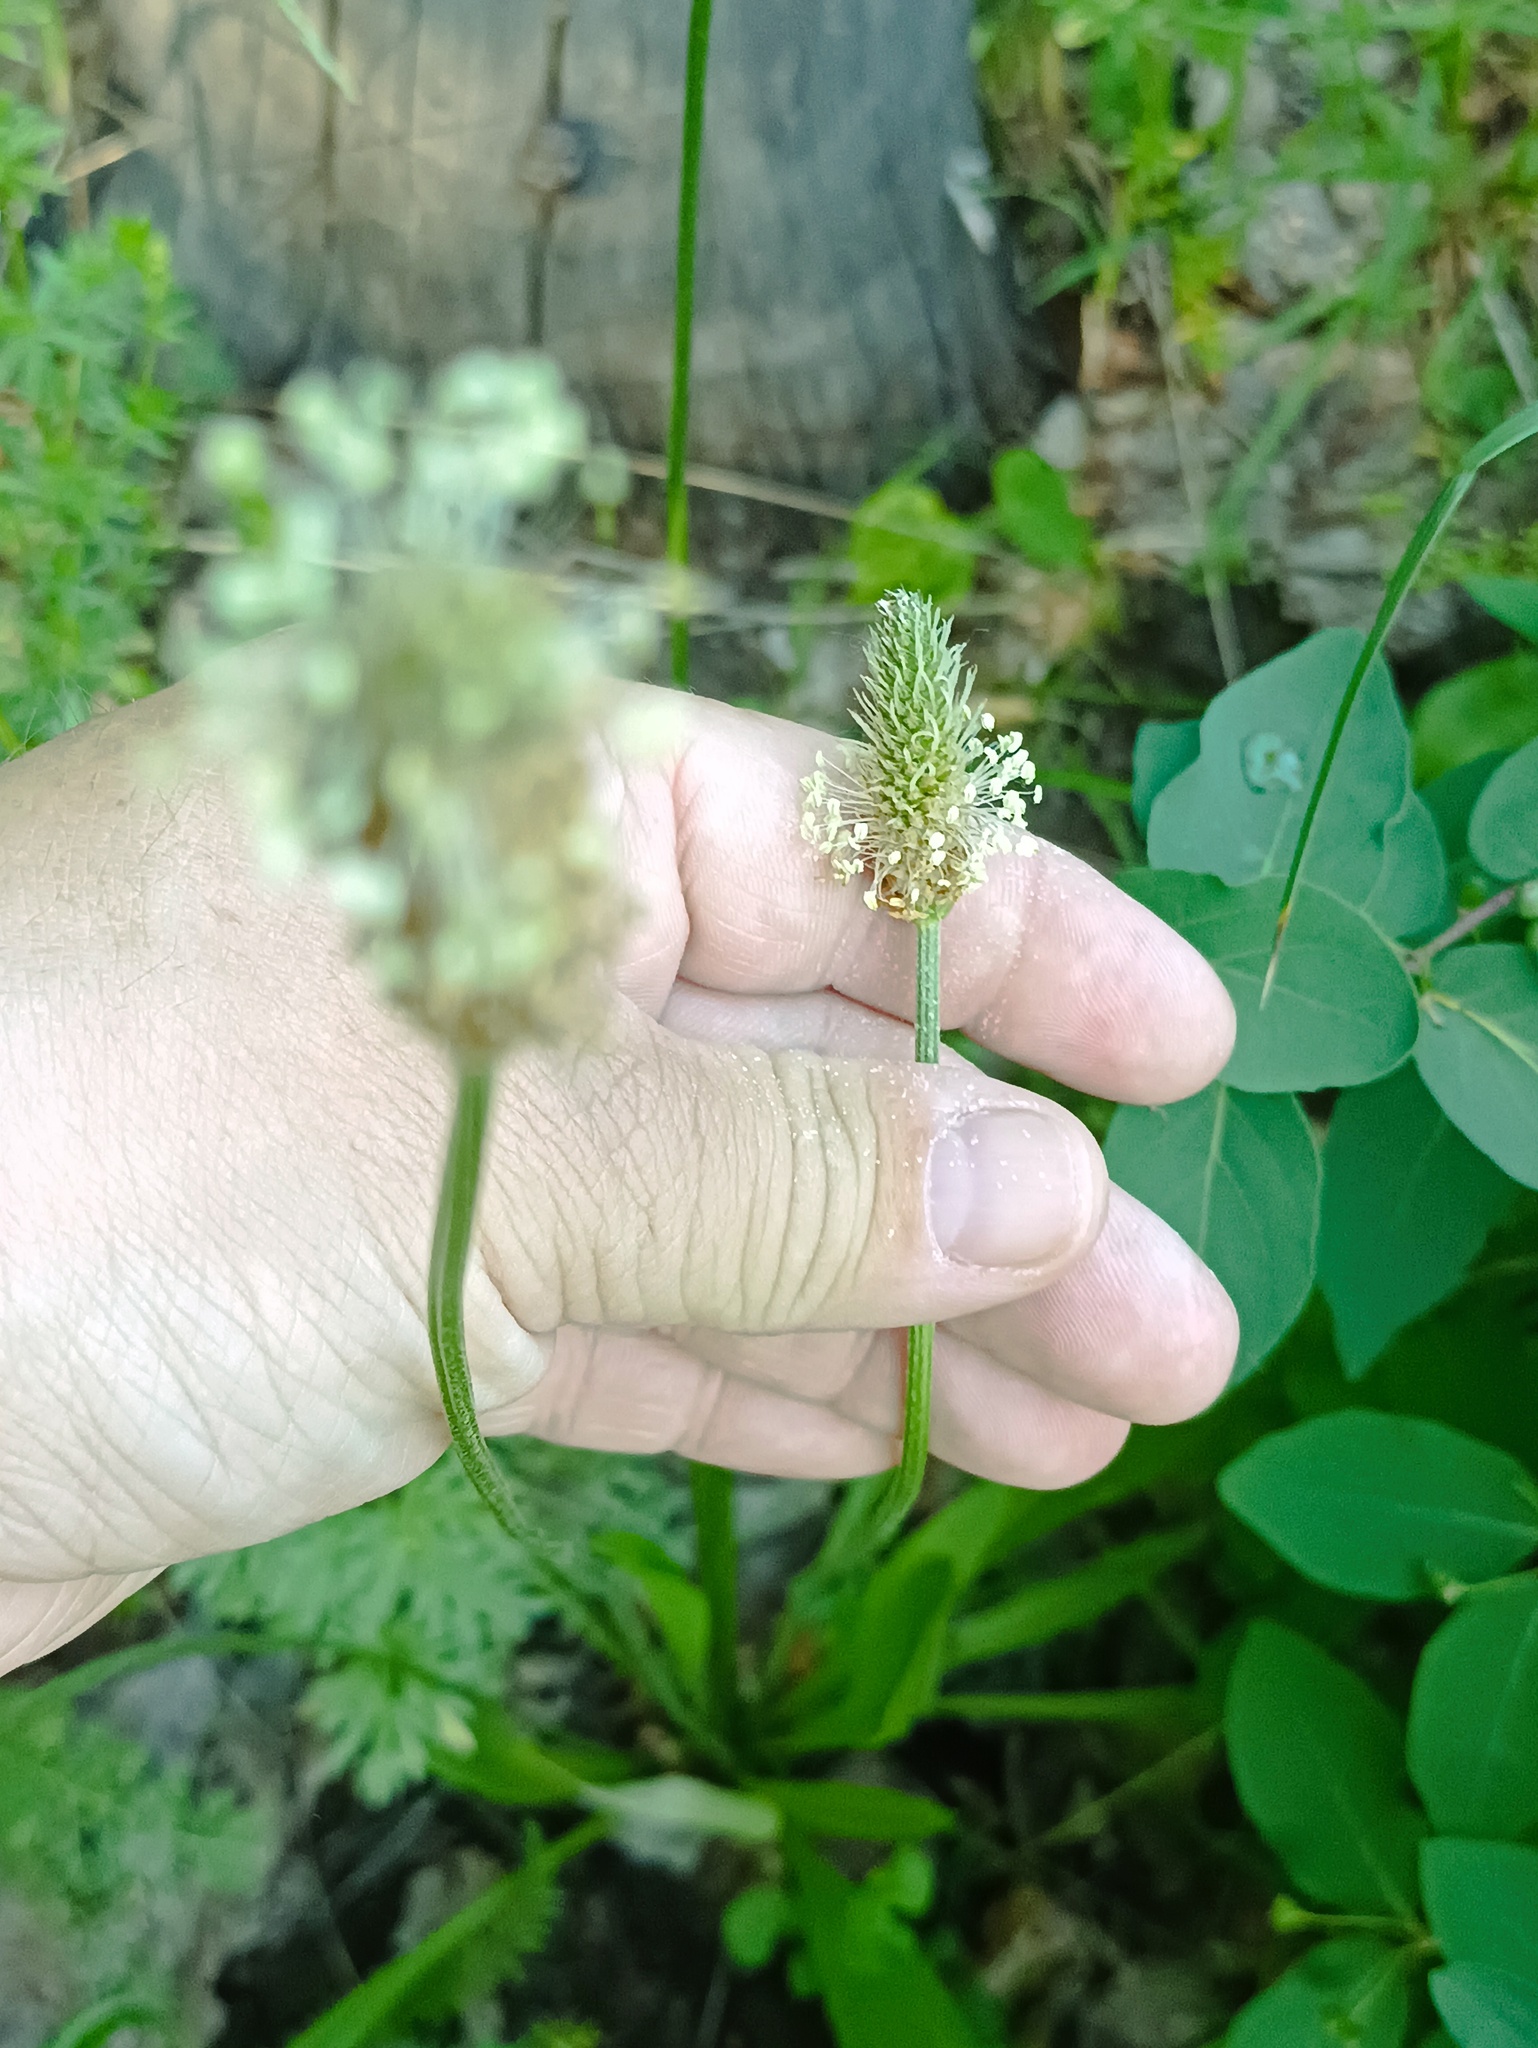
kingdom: Plantae
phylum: Tracheophyta
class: Magnoliopsida
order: Lamiales
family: Plantaginaceae
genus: Plantago
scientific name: Plantago lanceolata
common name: Ribwort plantain
